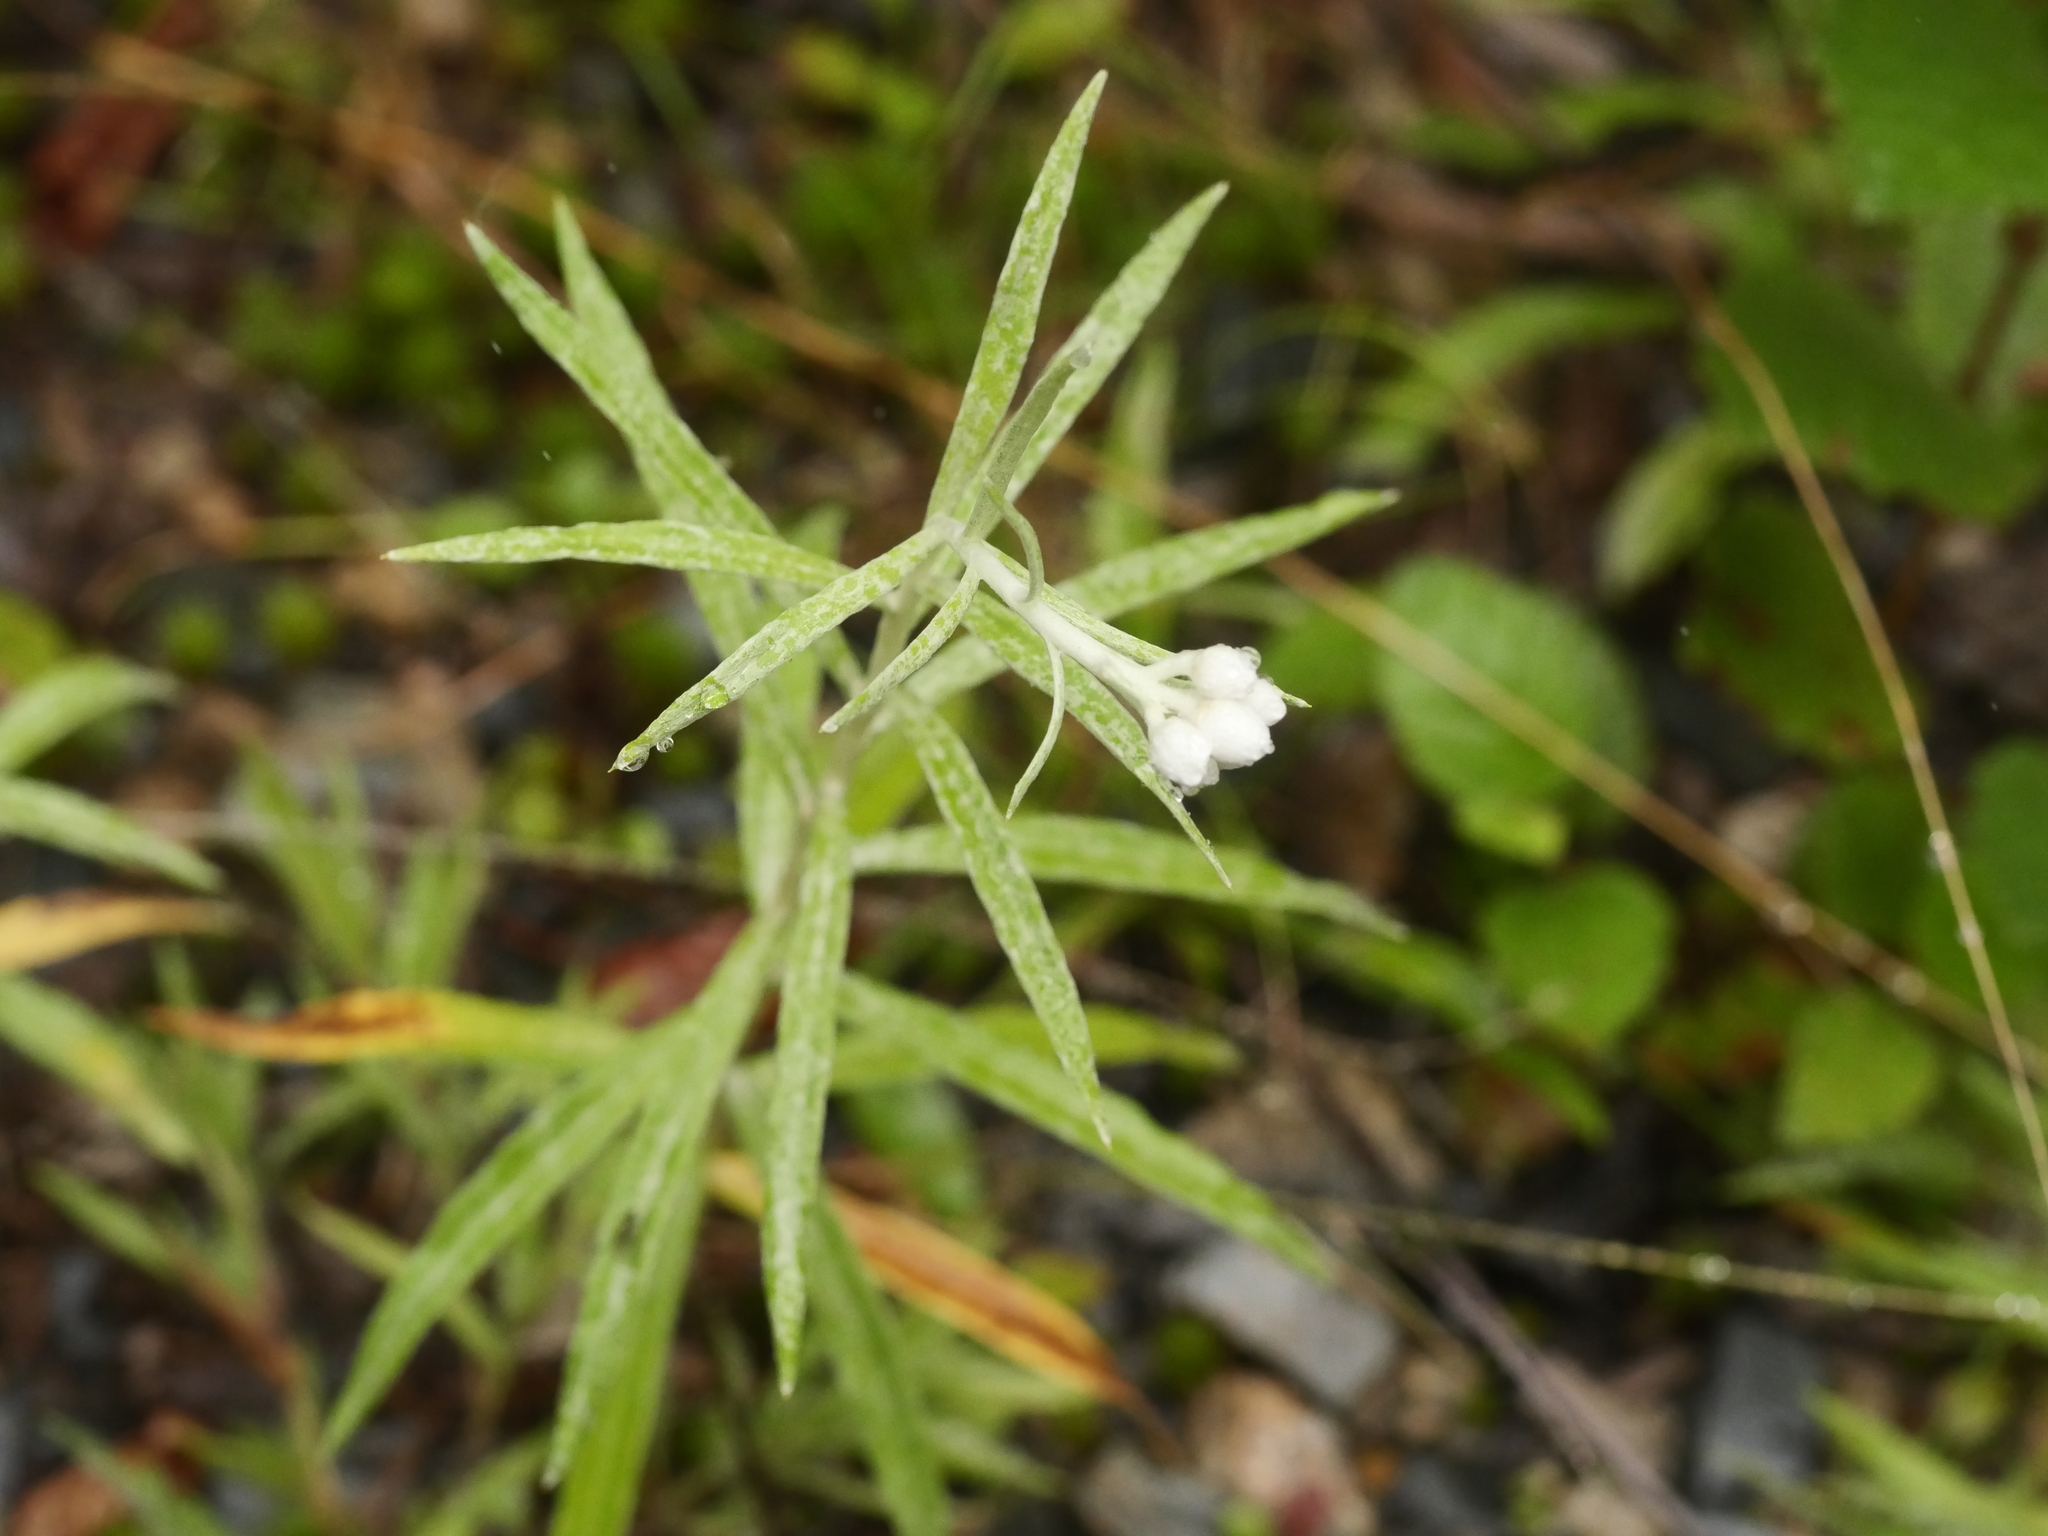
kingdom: Plantae
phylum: Tracheophyta
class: Magnoliopsida
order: Asterales
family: Asteraceae
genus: Anaphalis
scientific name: Anaphalis margaritacea
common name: Pearly everlasting
